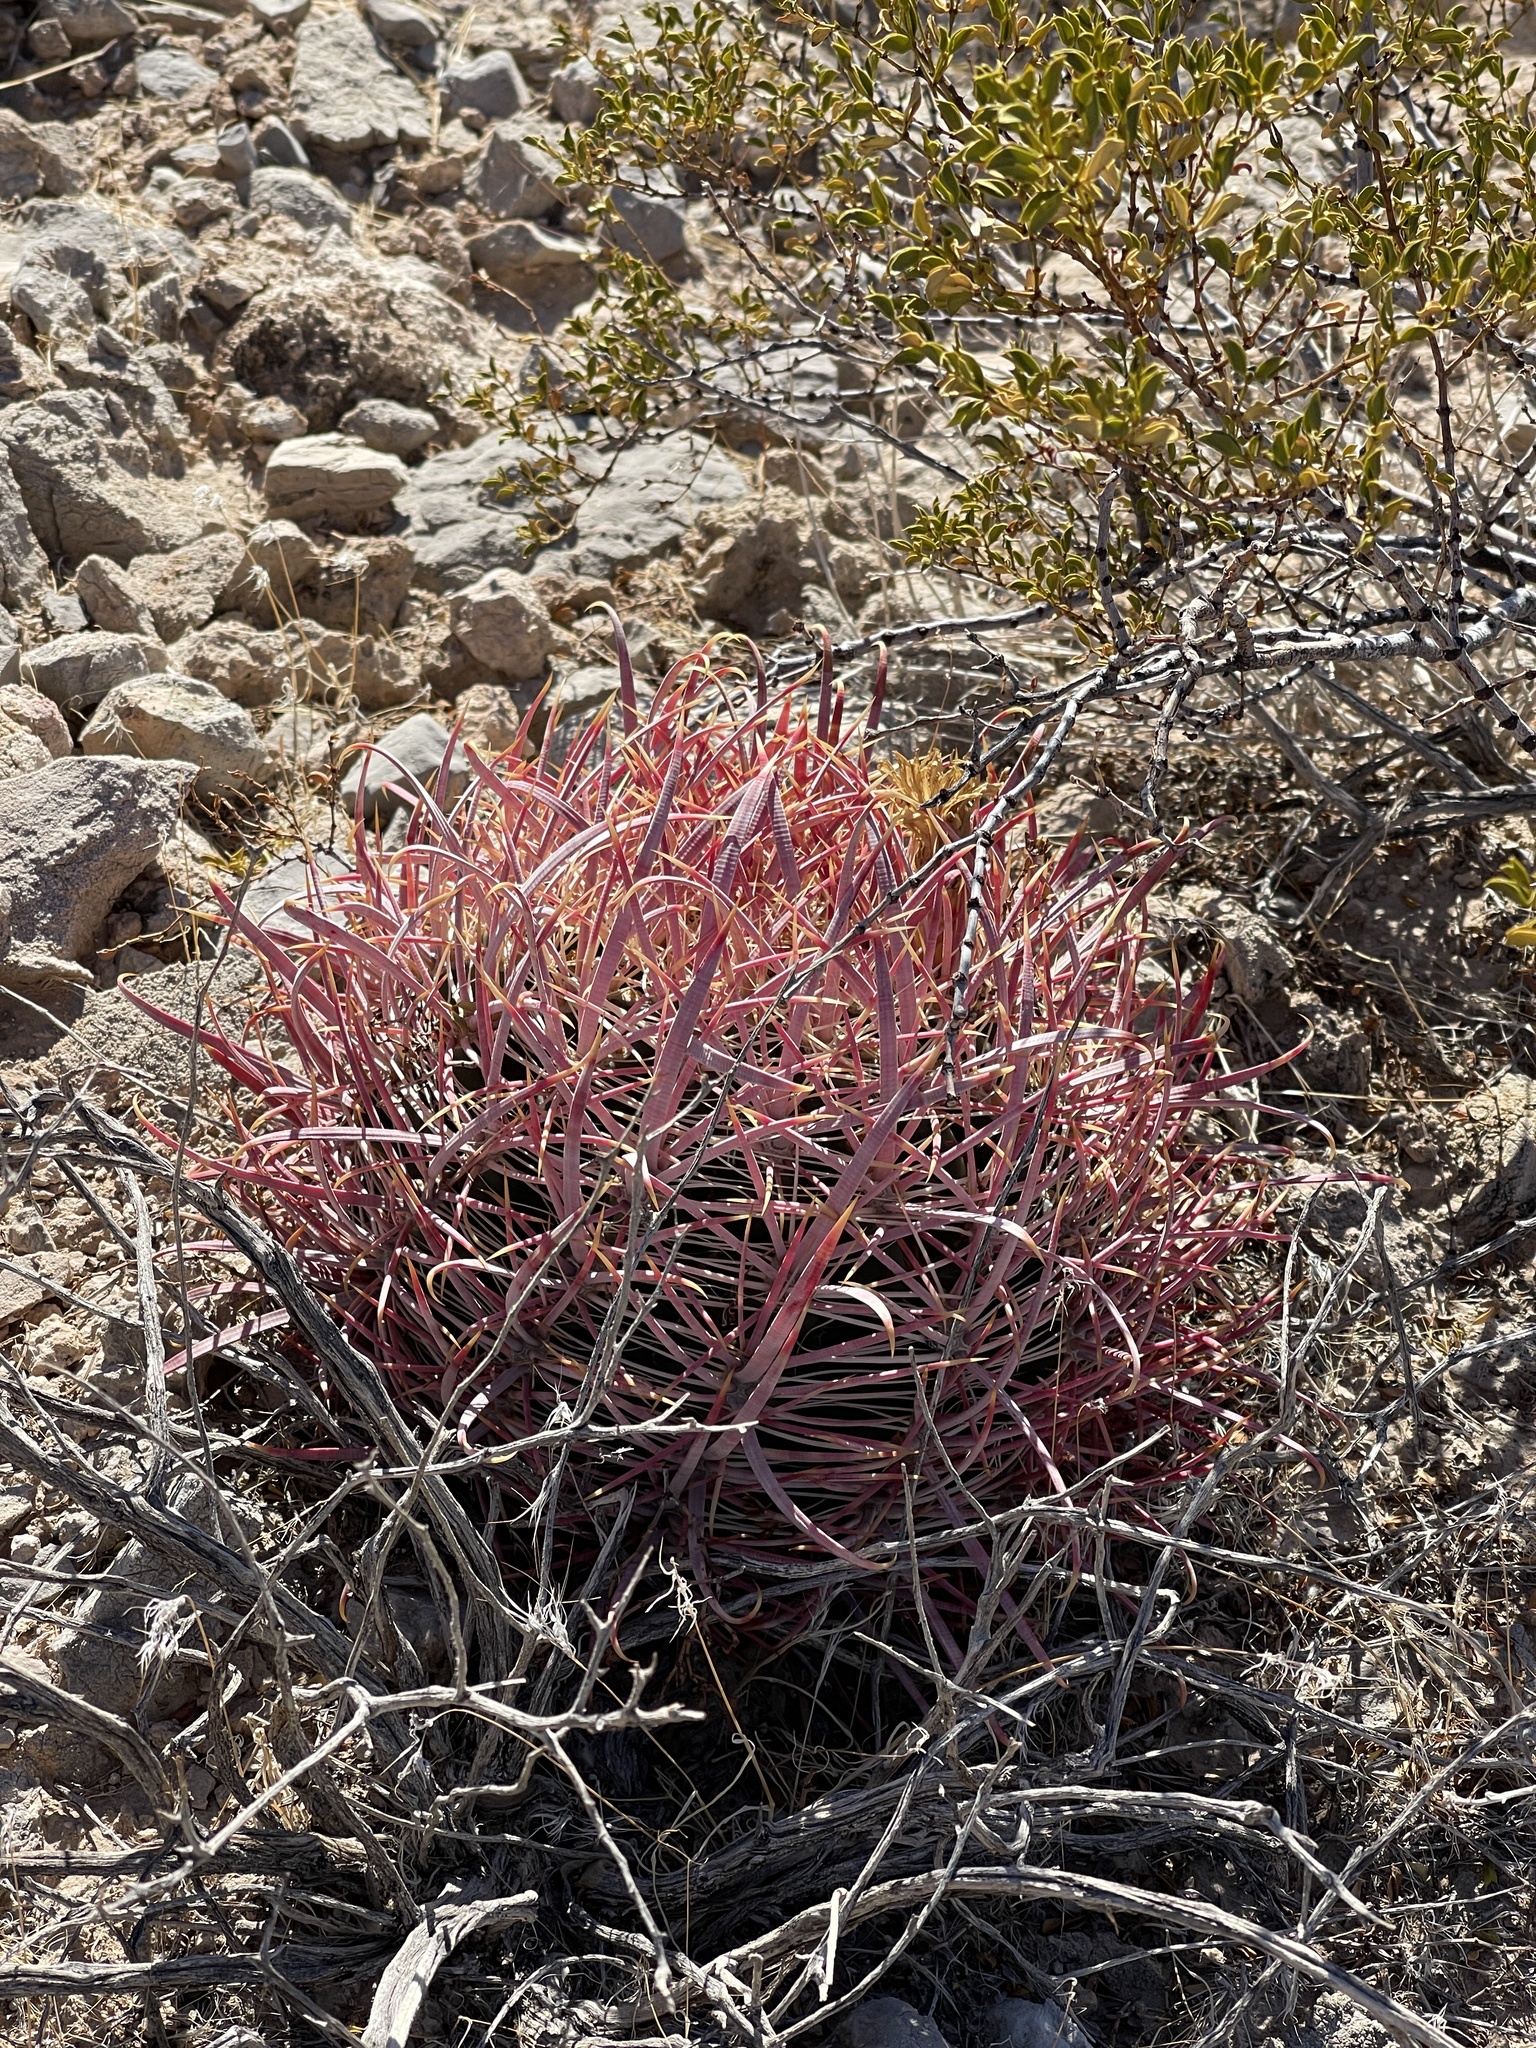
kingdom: Plantae
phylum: Tracheophyta
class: Magnoliopsida
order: Caryophyllales
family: Cactaceae
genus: Ferocactus
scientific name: Ferocactus cylindraceus
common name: California barrel cactus
